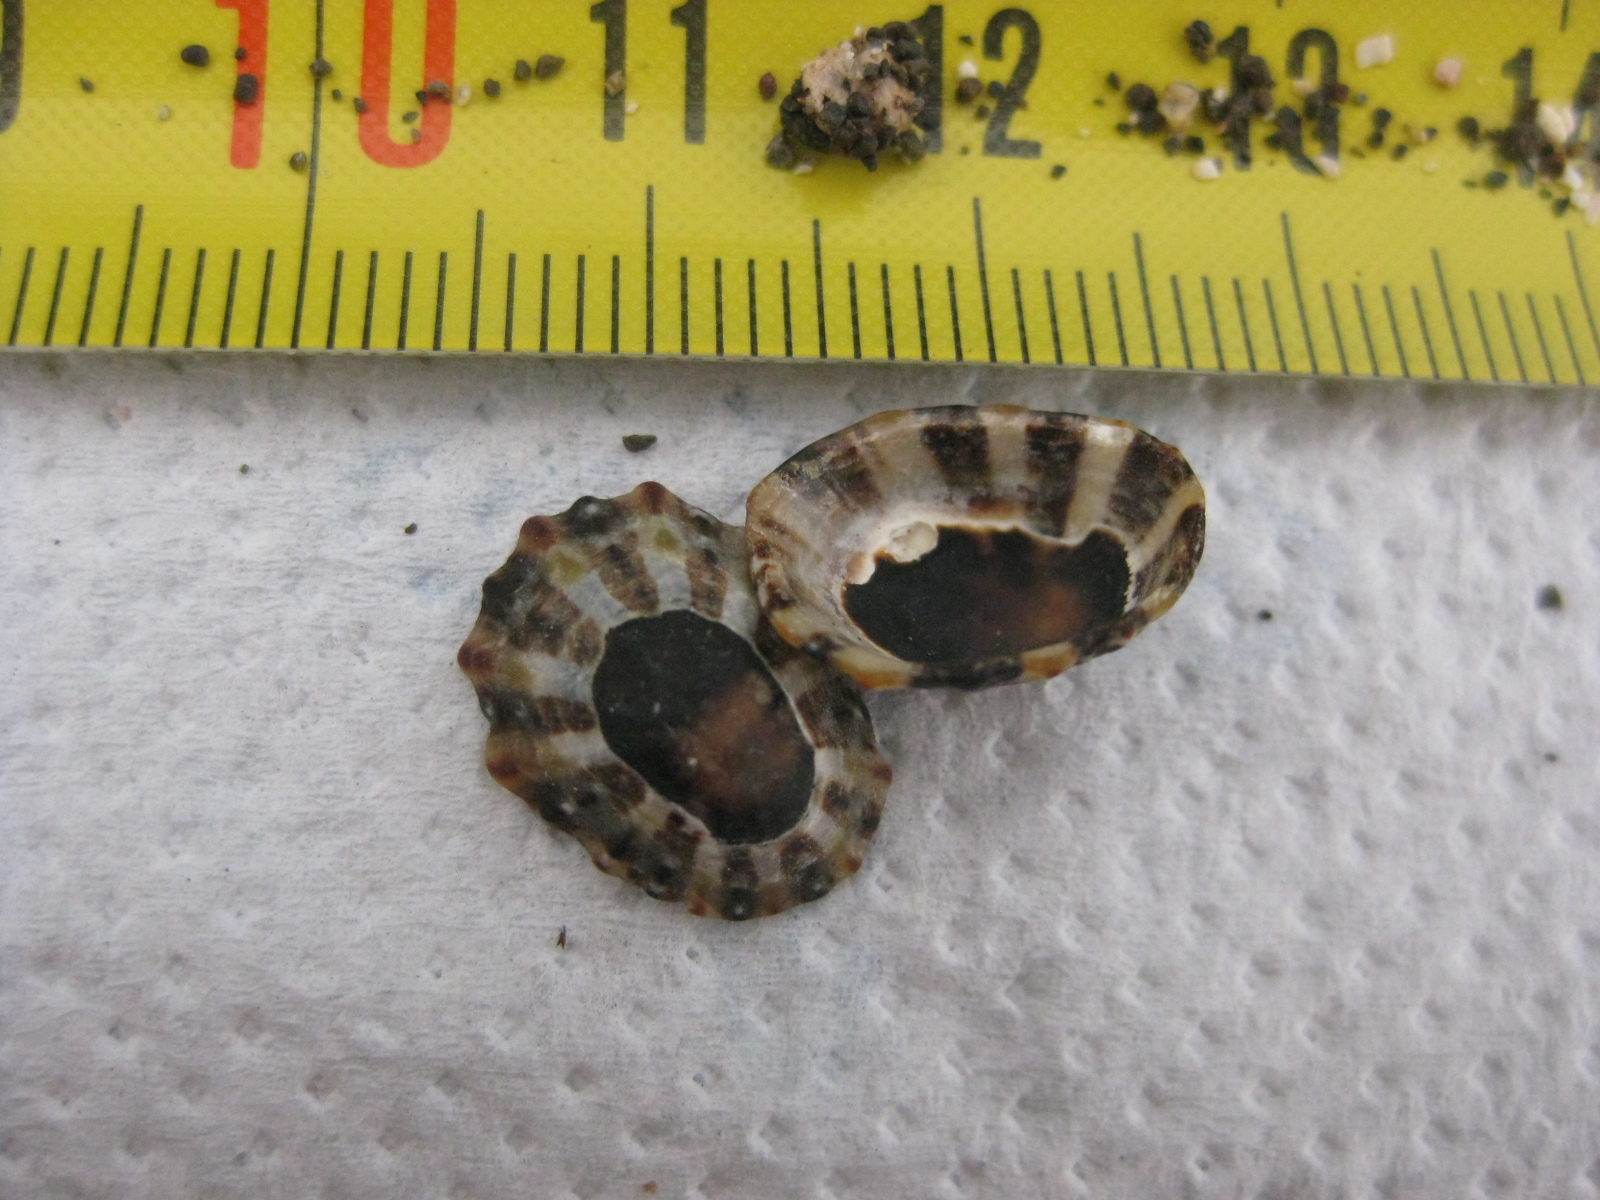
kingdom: Animalia
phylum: Mollusca
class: Gastropoda
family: Nacellidae
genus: Cellana
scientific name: Cellana ornata
